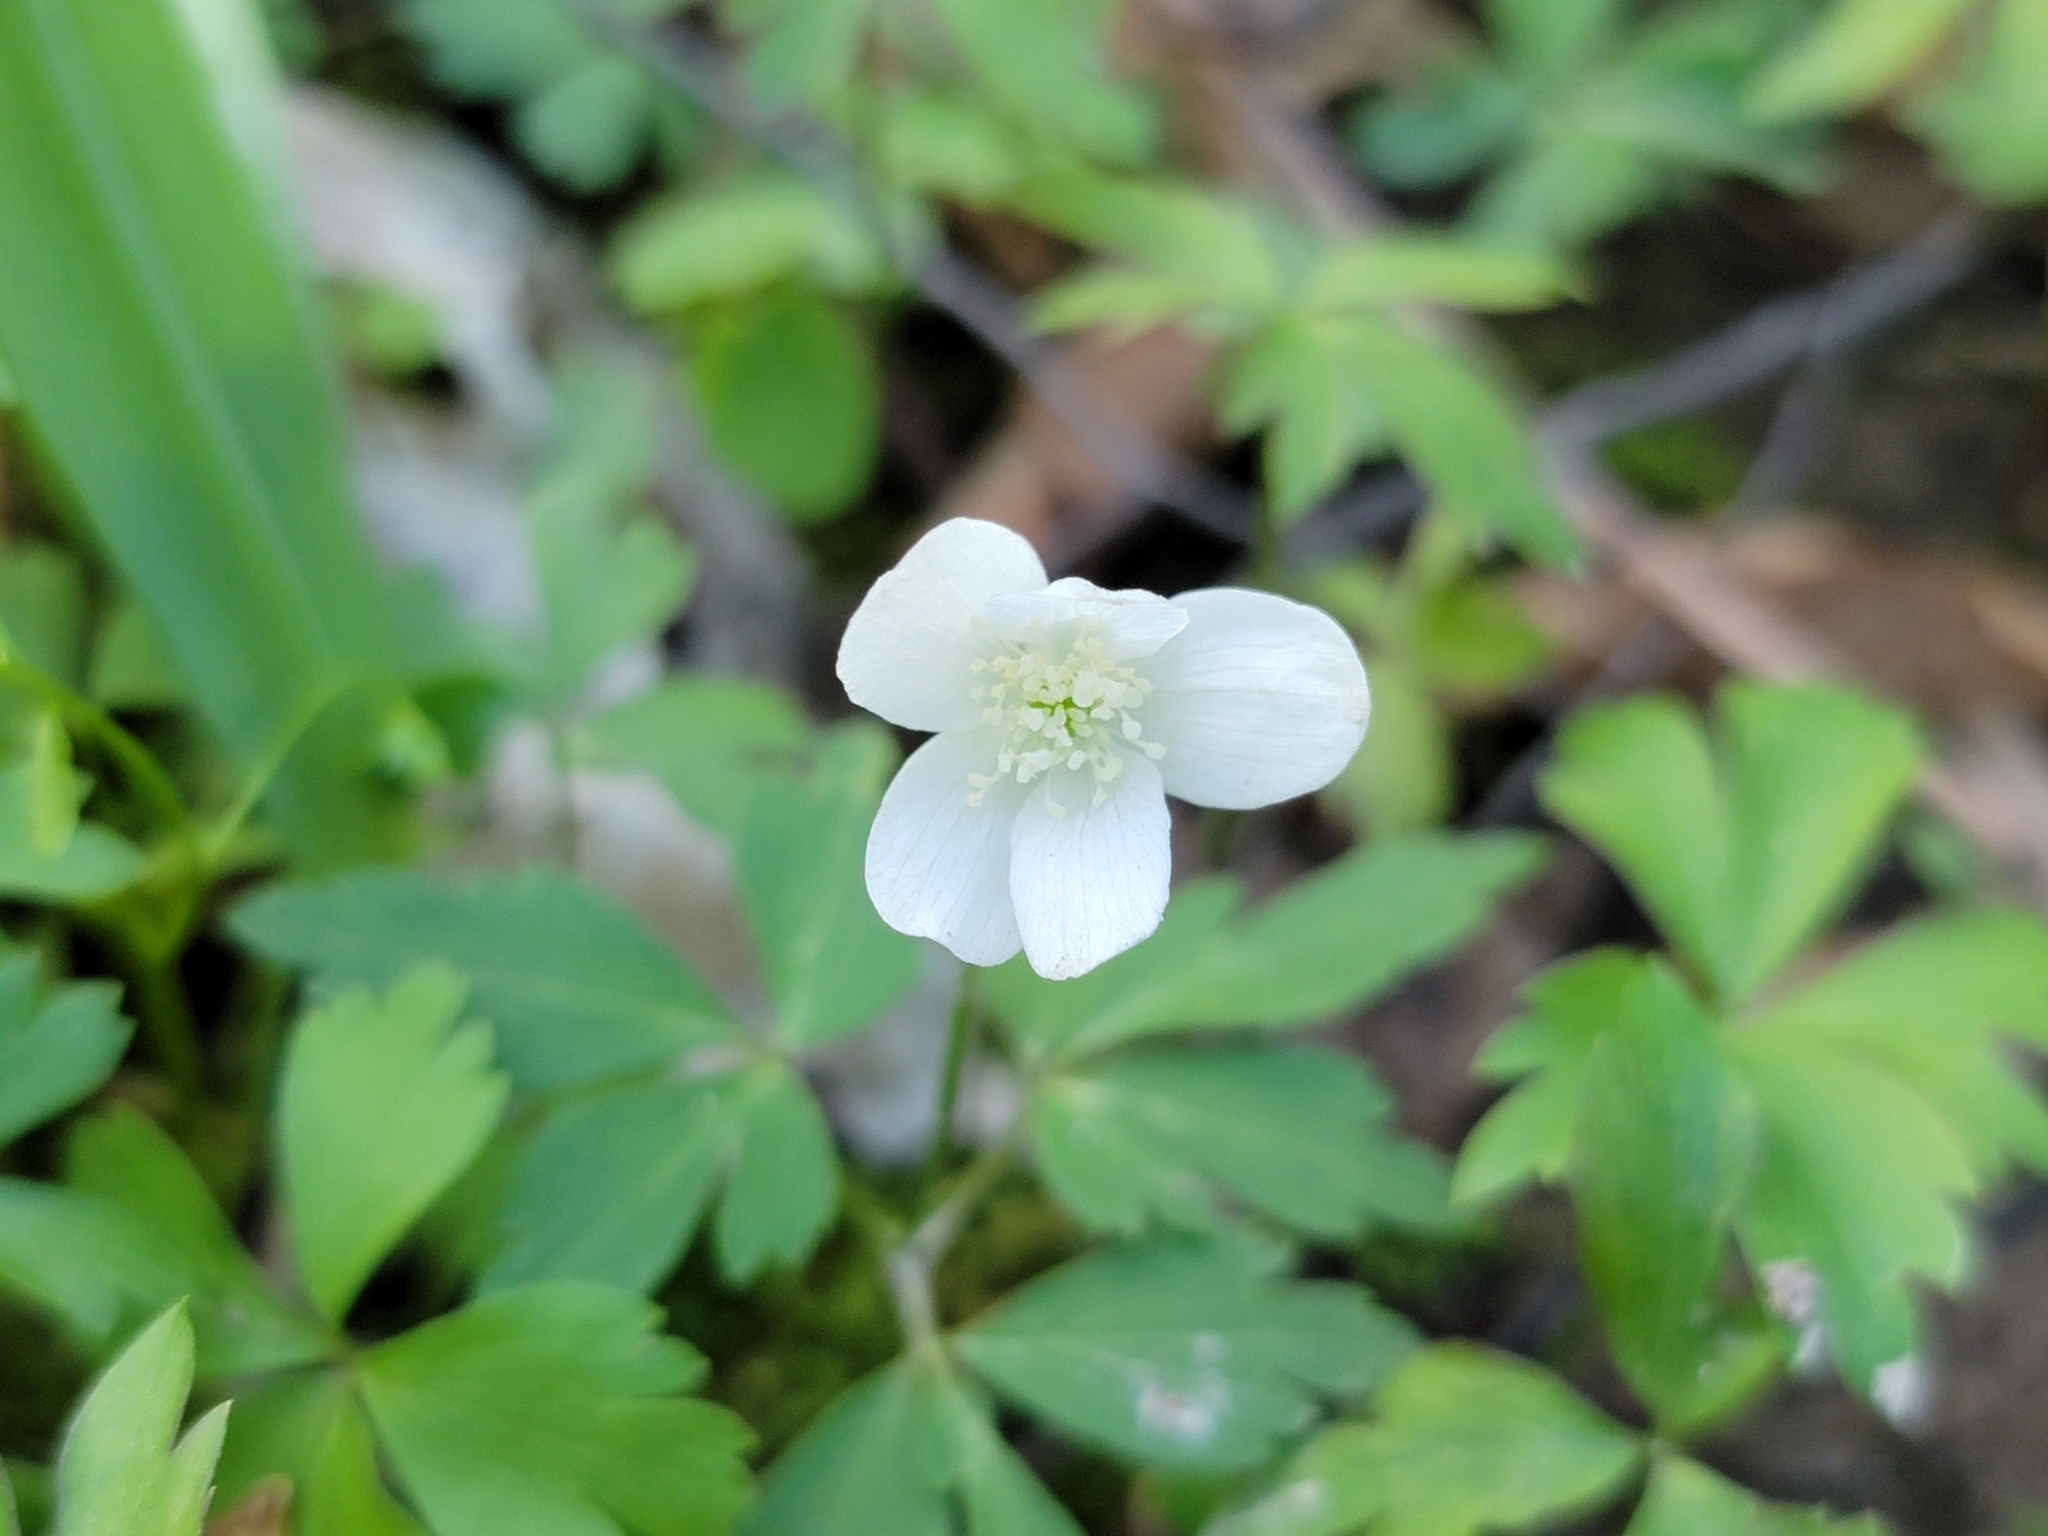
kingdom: Plantae
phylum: Tracheophyta
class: Magnoliopsida
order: Ranunculales
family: Ranunculaceae
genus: Anemone
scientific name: Anemone quinquefolia
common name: Wood anemone
